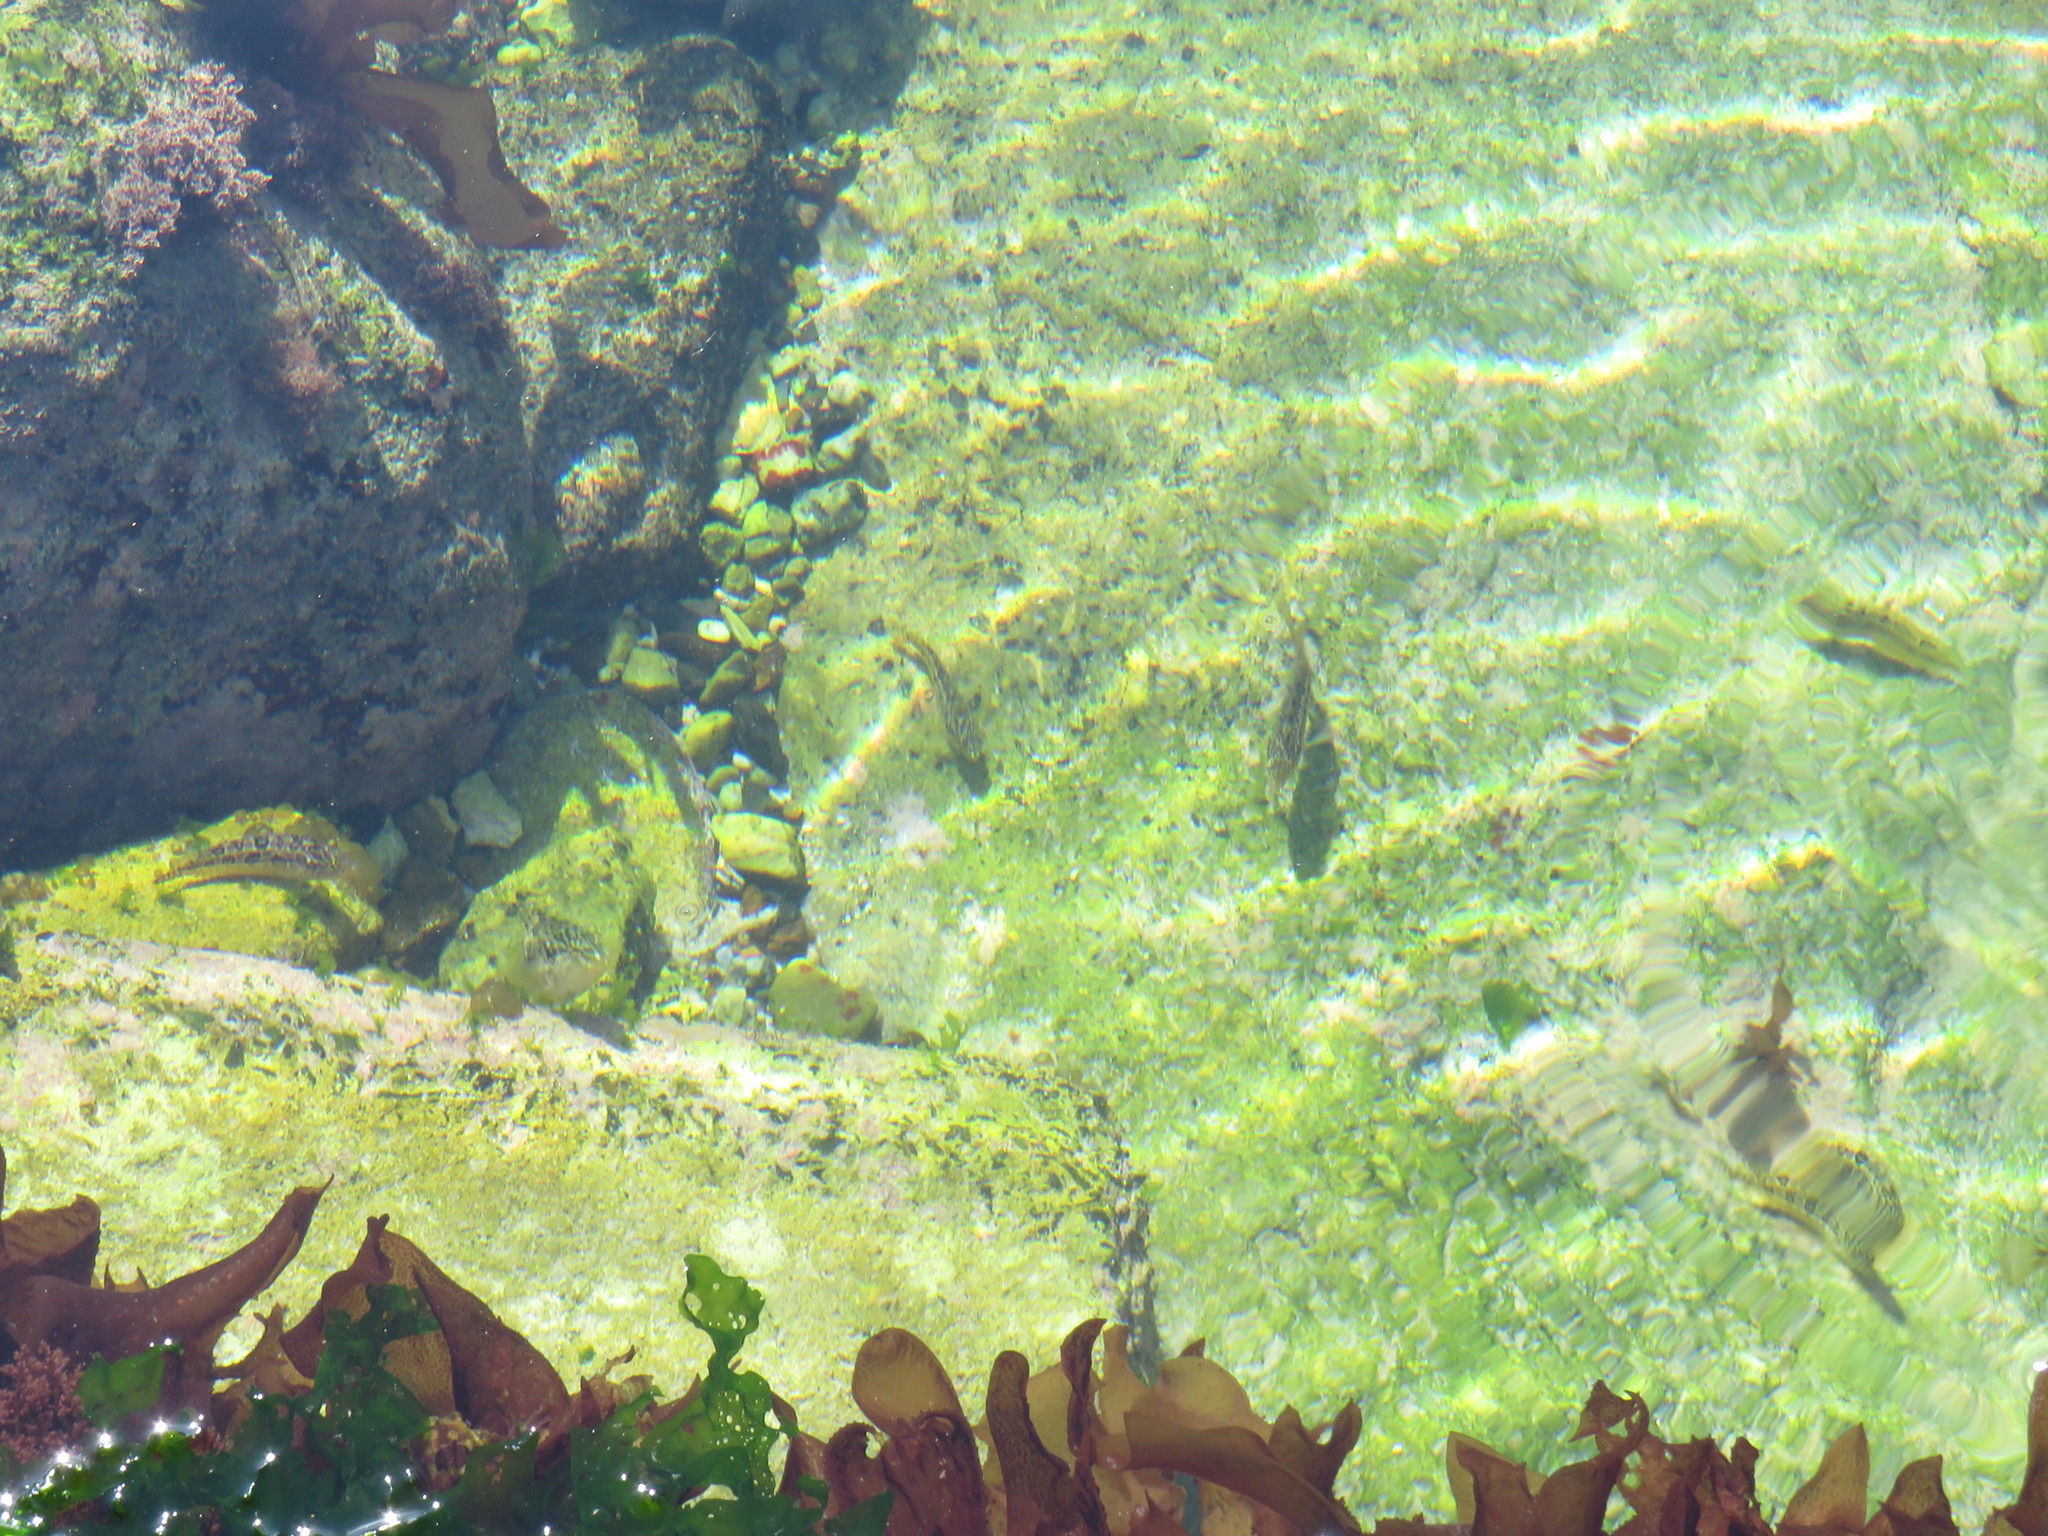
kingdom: Animalia
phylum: Chordata
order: Perciformes
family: Clinidae
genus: Clinus
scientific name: Clinus superciliosus
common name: Super klipfish
